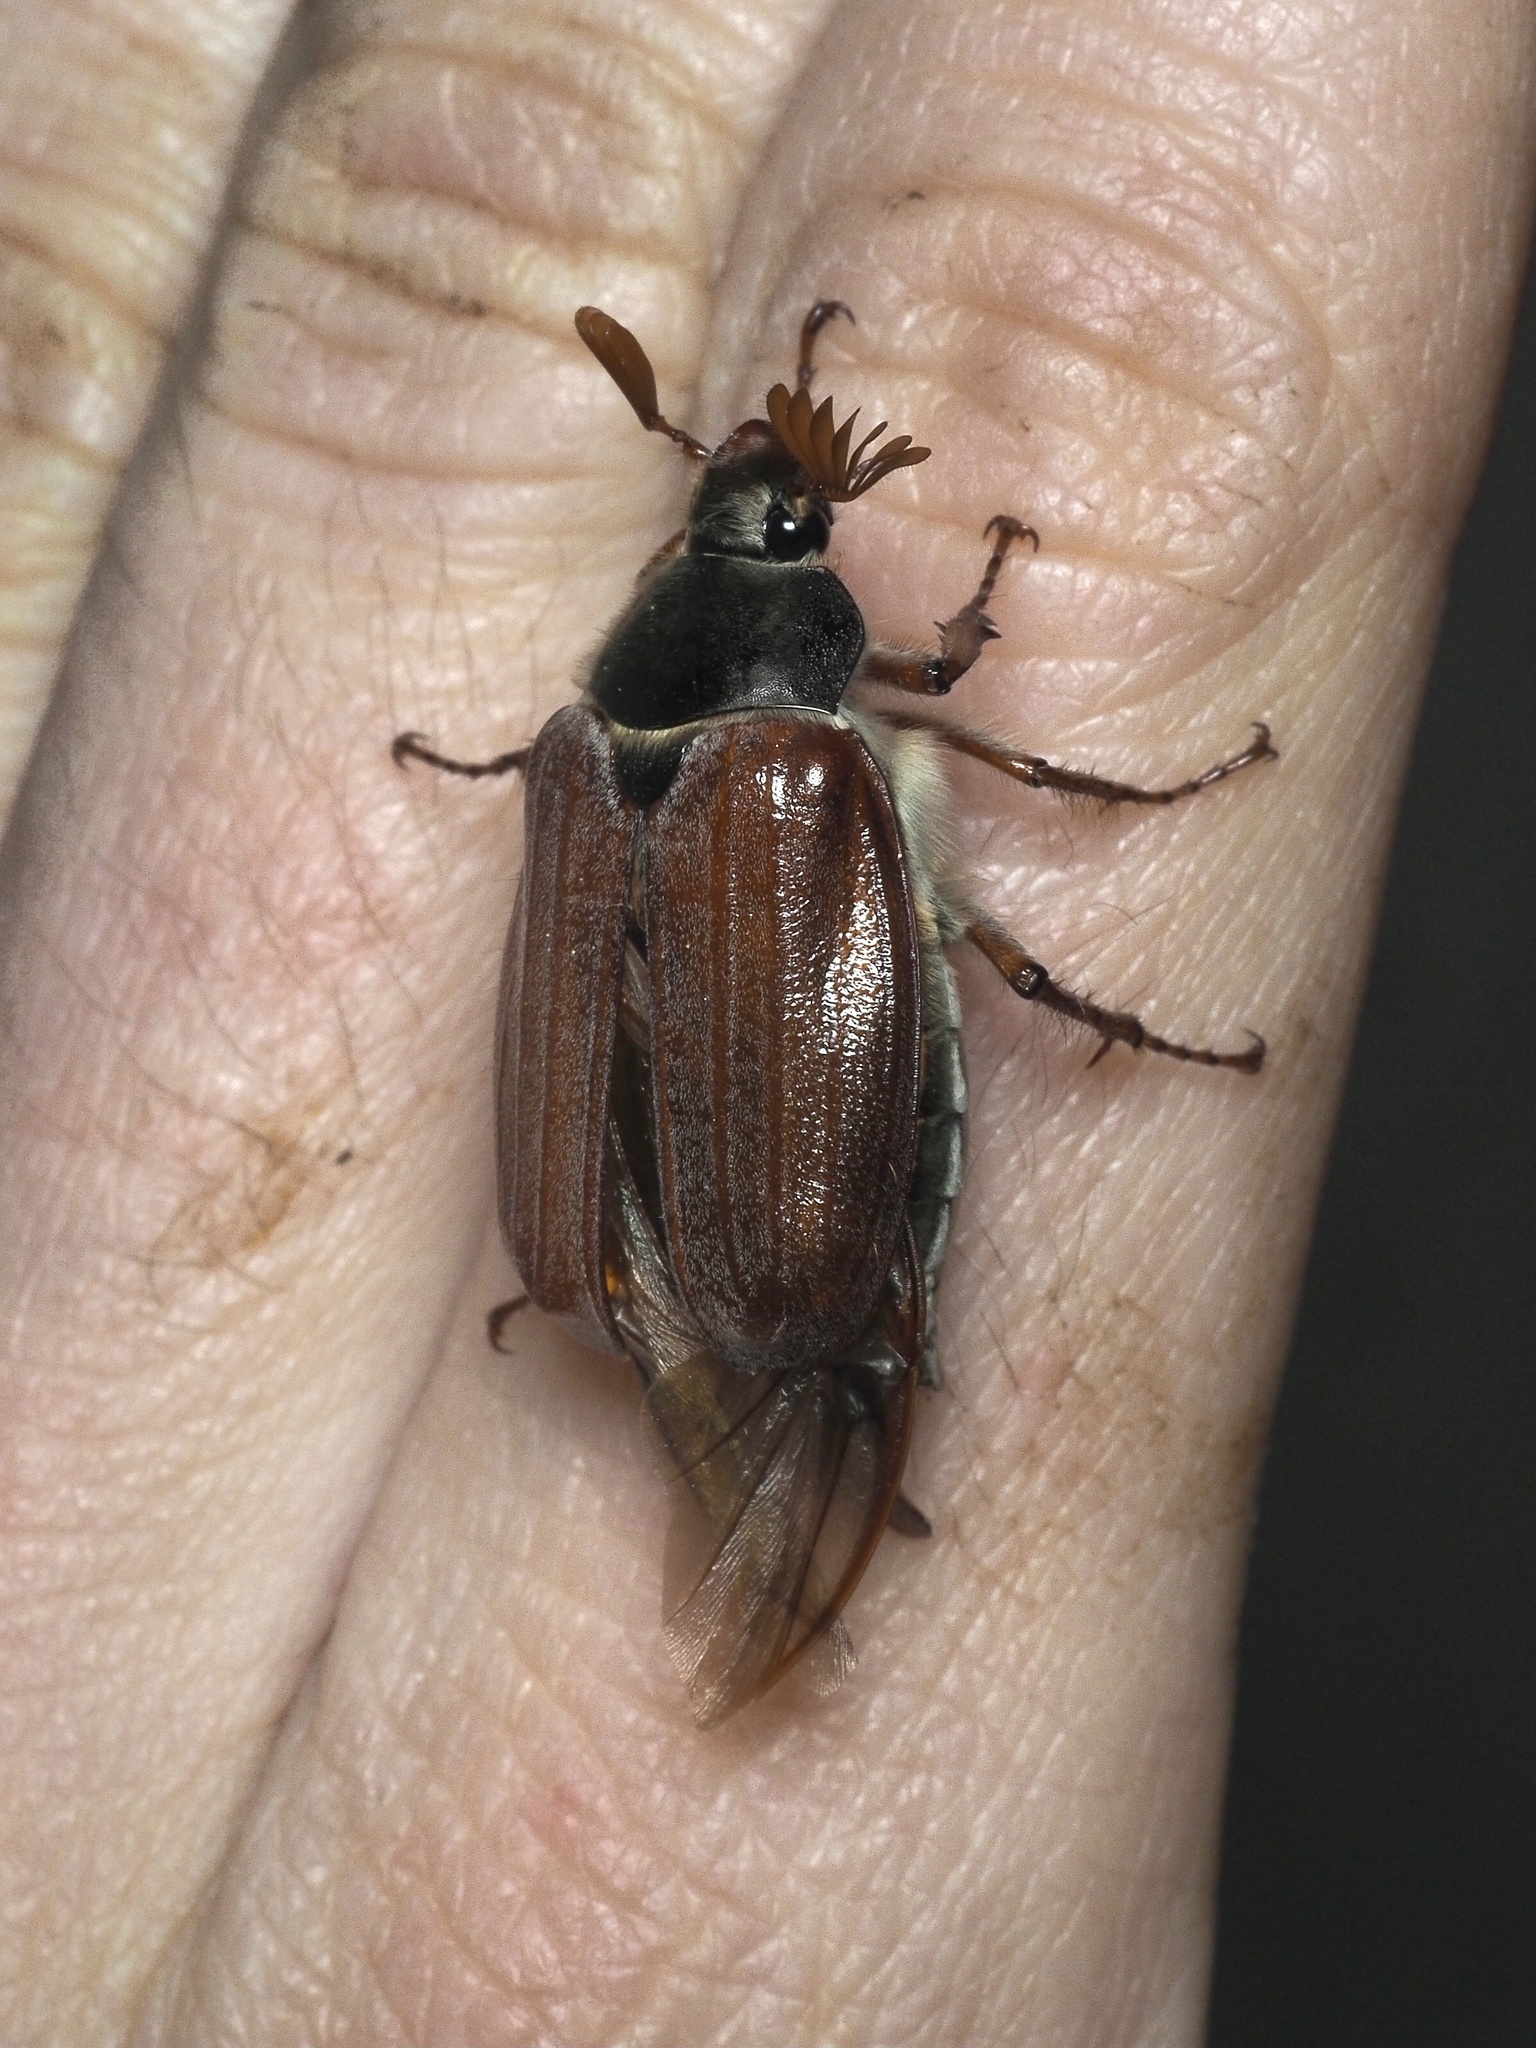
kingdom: Animalia
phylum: Arthropoda
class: Insecta
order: Coleoptera
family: Scarabaeidae
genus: Melolontha
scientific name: Melolontha melolontha
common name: Cockchafer maybeetle
